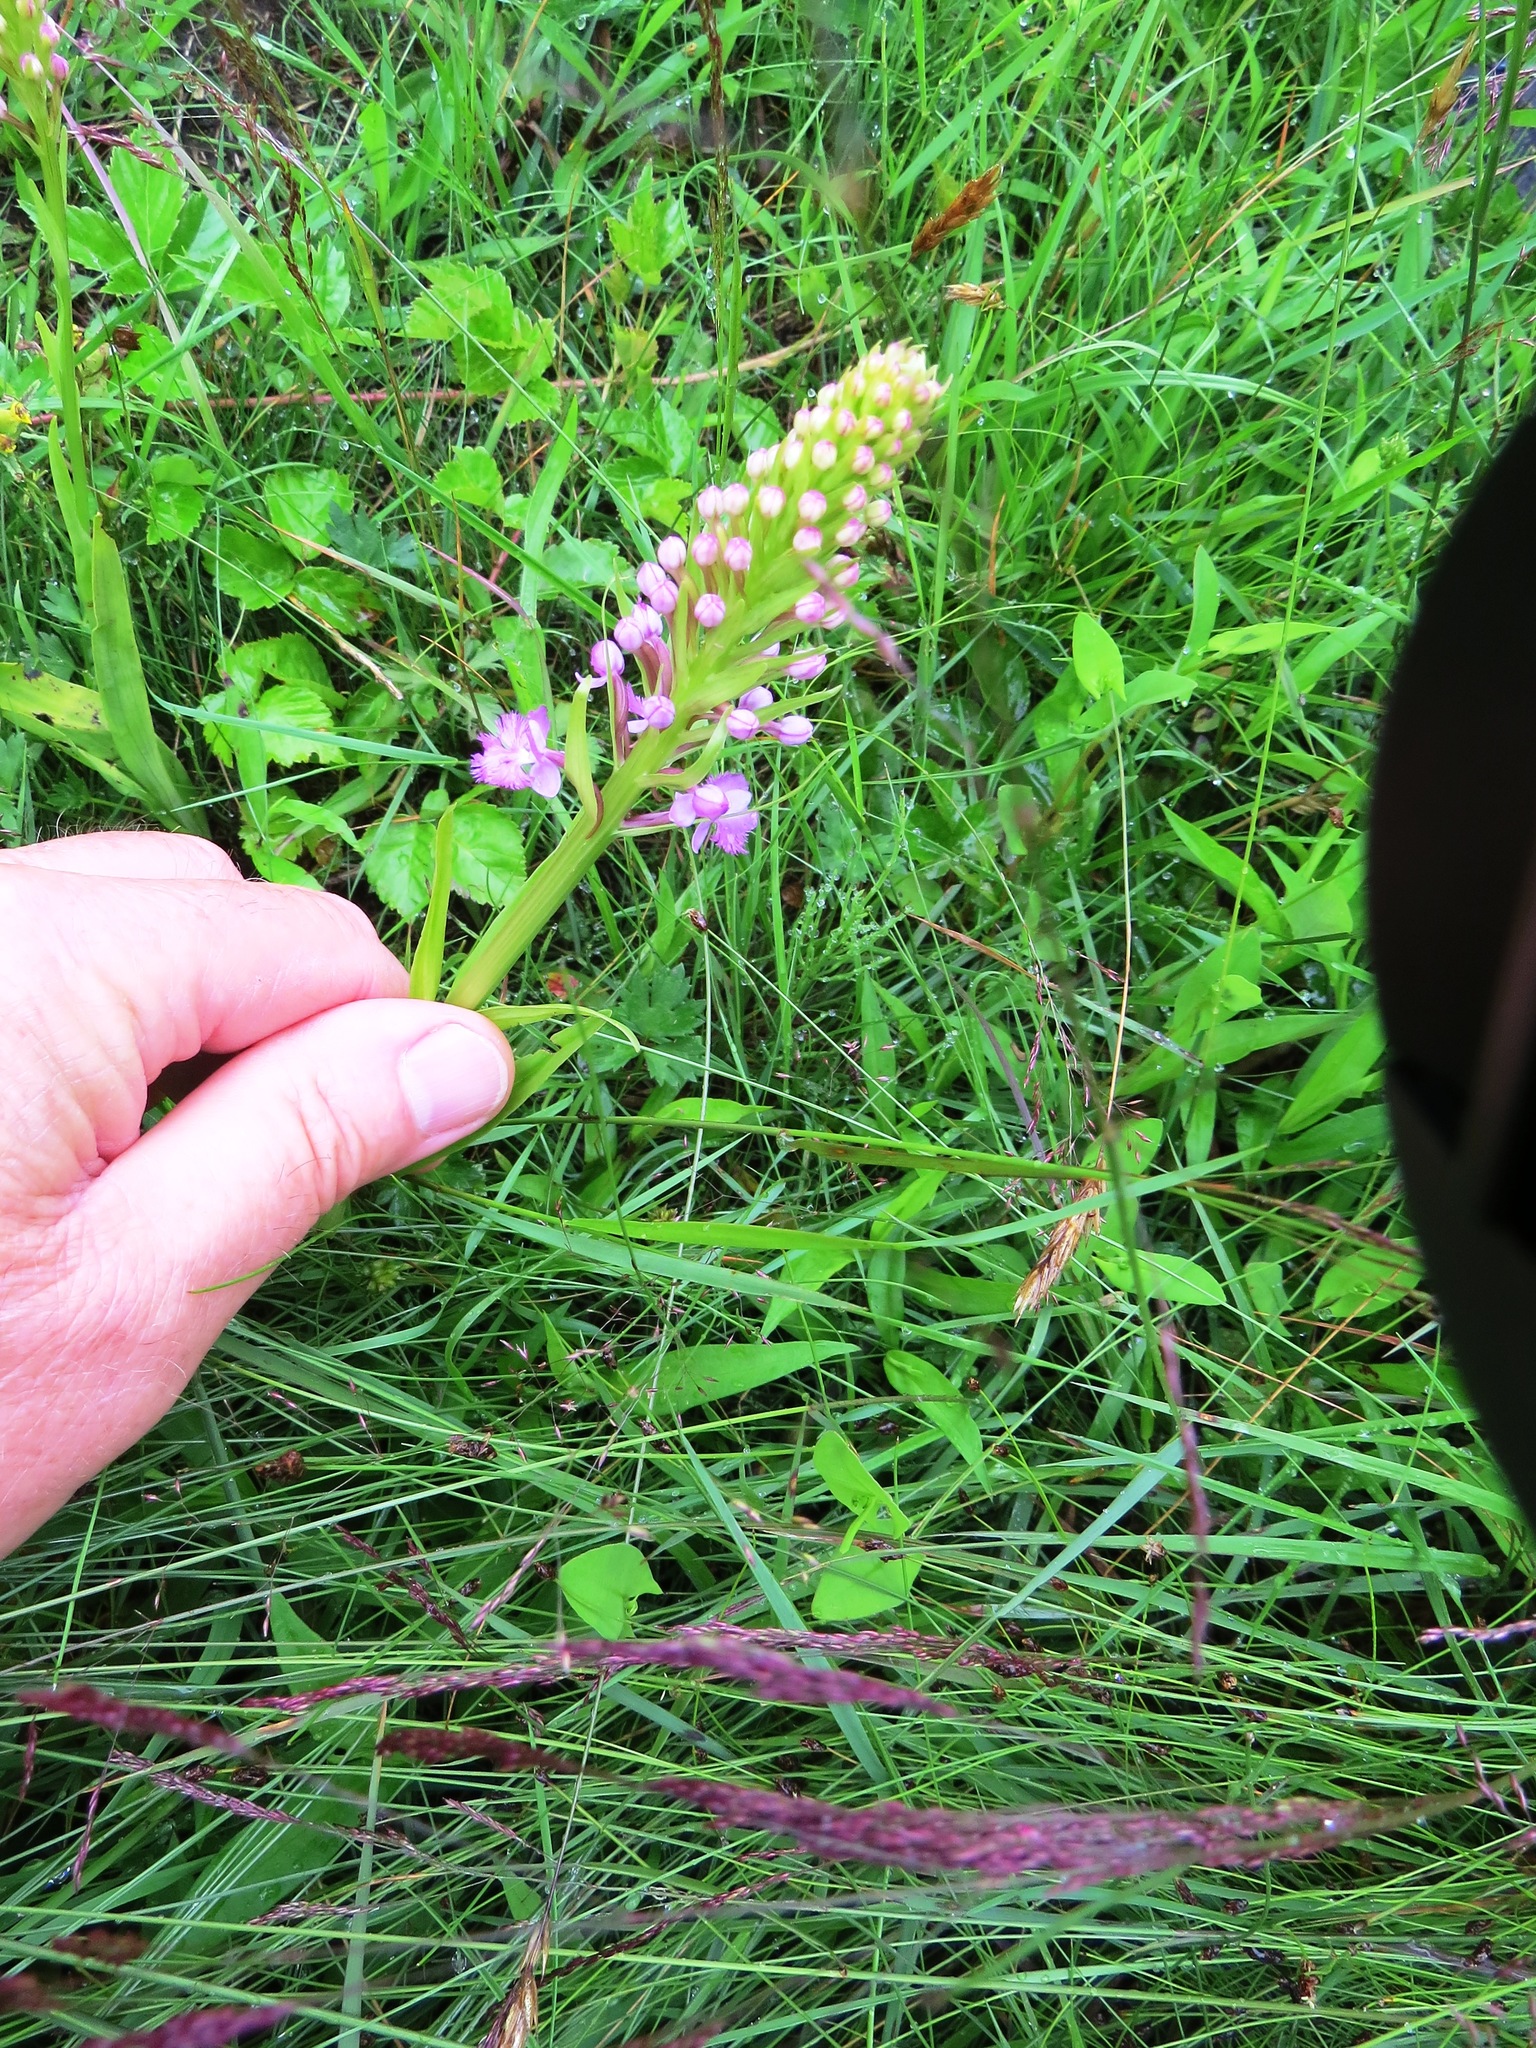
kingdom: Plantae
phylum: Tracheophyta
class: Liliopsida
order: Asparagales
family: Orchidaceae
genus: Platanthera
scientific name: Platanthera psycodes
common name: Lesser purple fringed orchid
